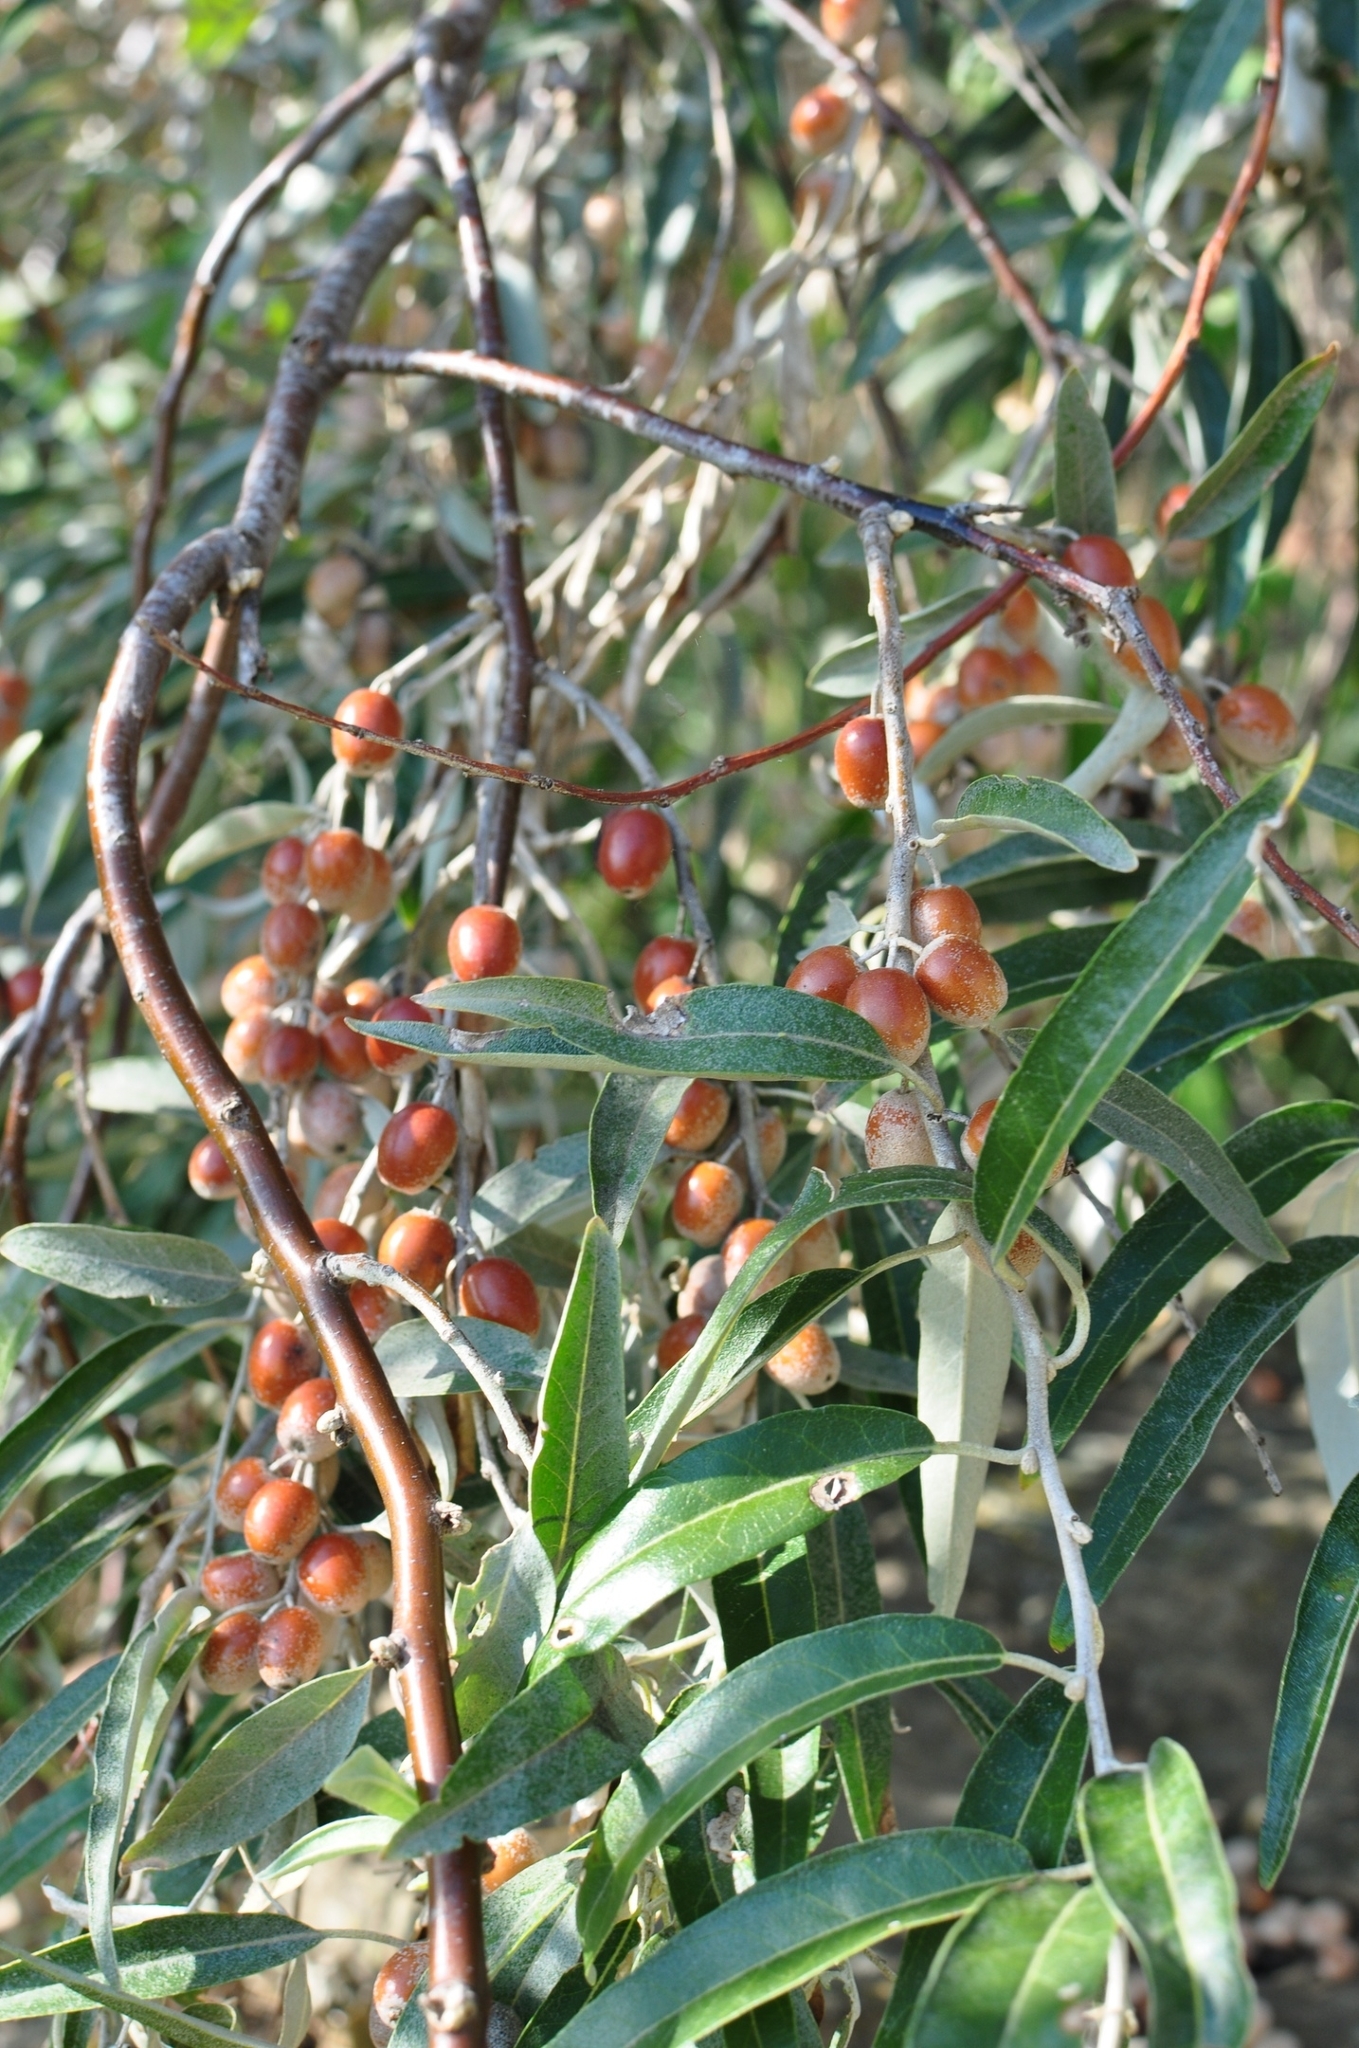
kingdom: Plantae
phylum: Tracheophyta
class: Magnoliopsida
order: Rosales
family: Elaeagnaceae
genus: Elaeagnus
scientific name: Elaeagnus angustifolia
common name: Russian olive
